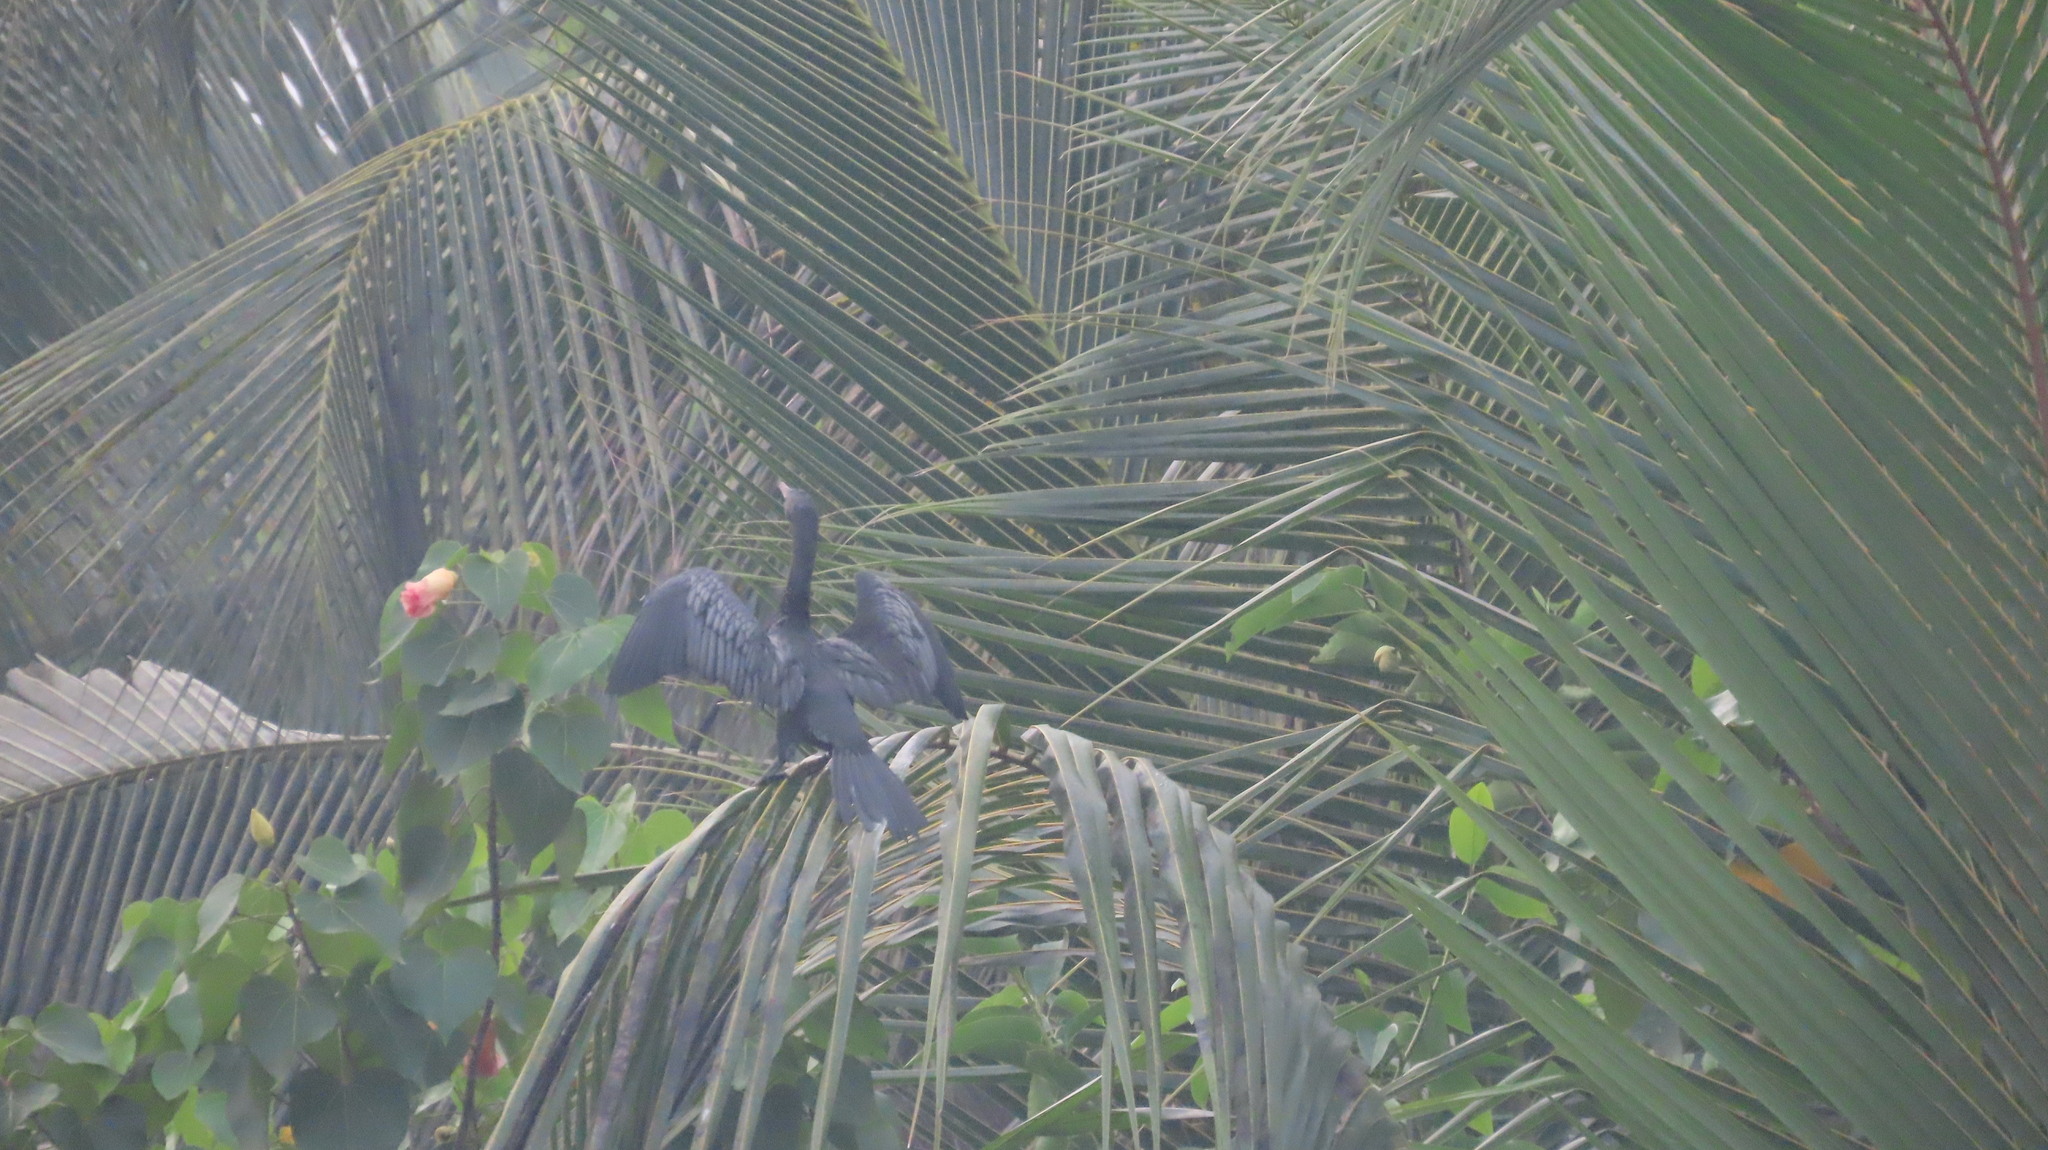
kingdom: Animalia
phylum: Chordata
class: Aves
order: Suliformes
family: Phalacrocoracidae
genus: Microcarbo
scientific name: Microcarbo niger
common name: Little cormorant
